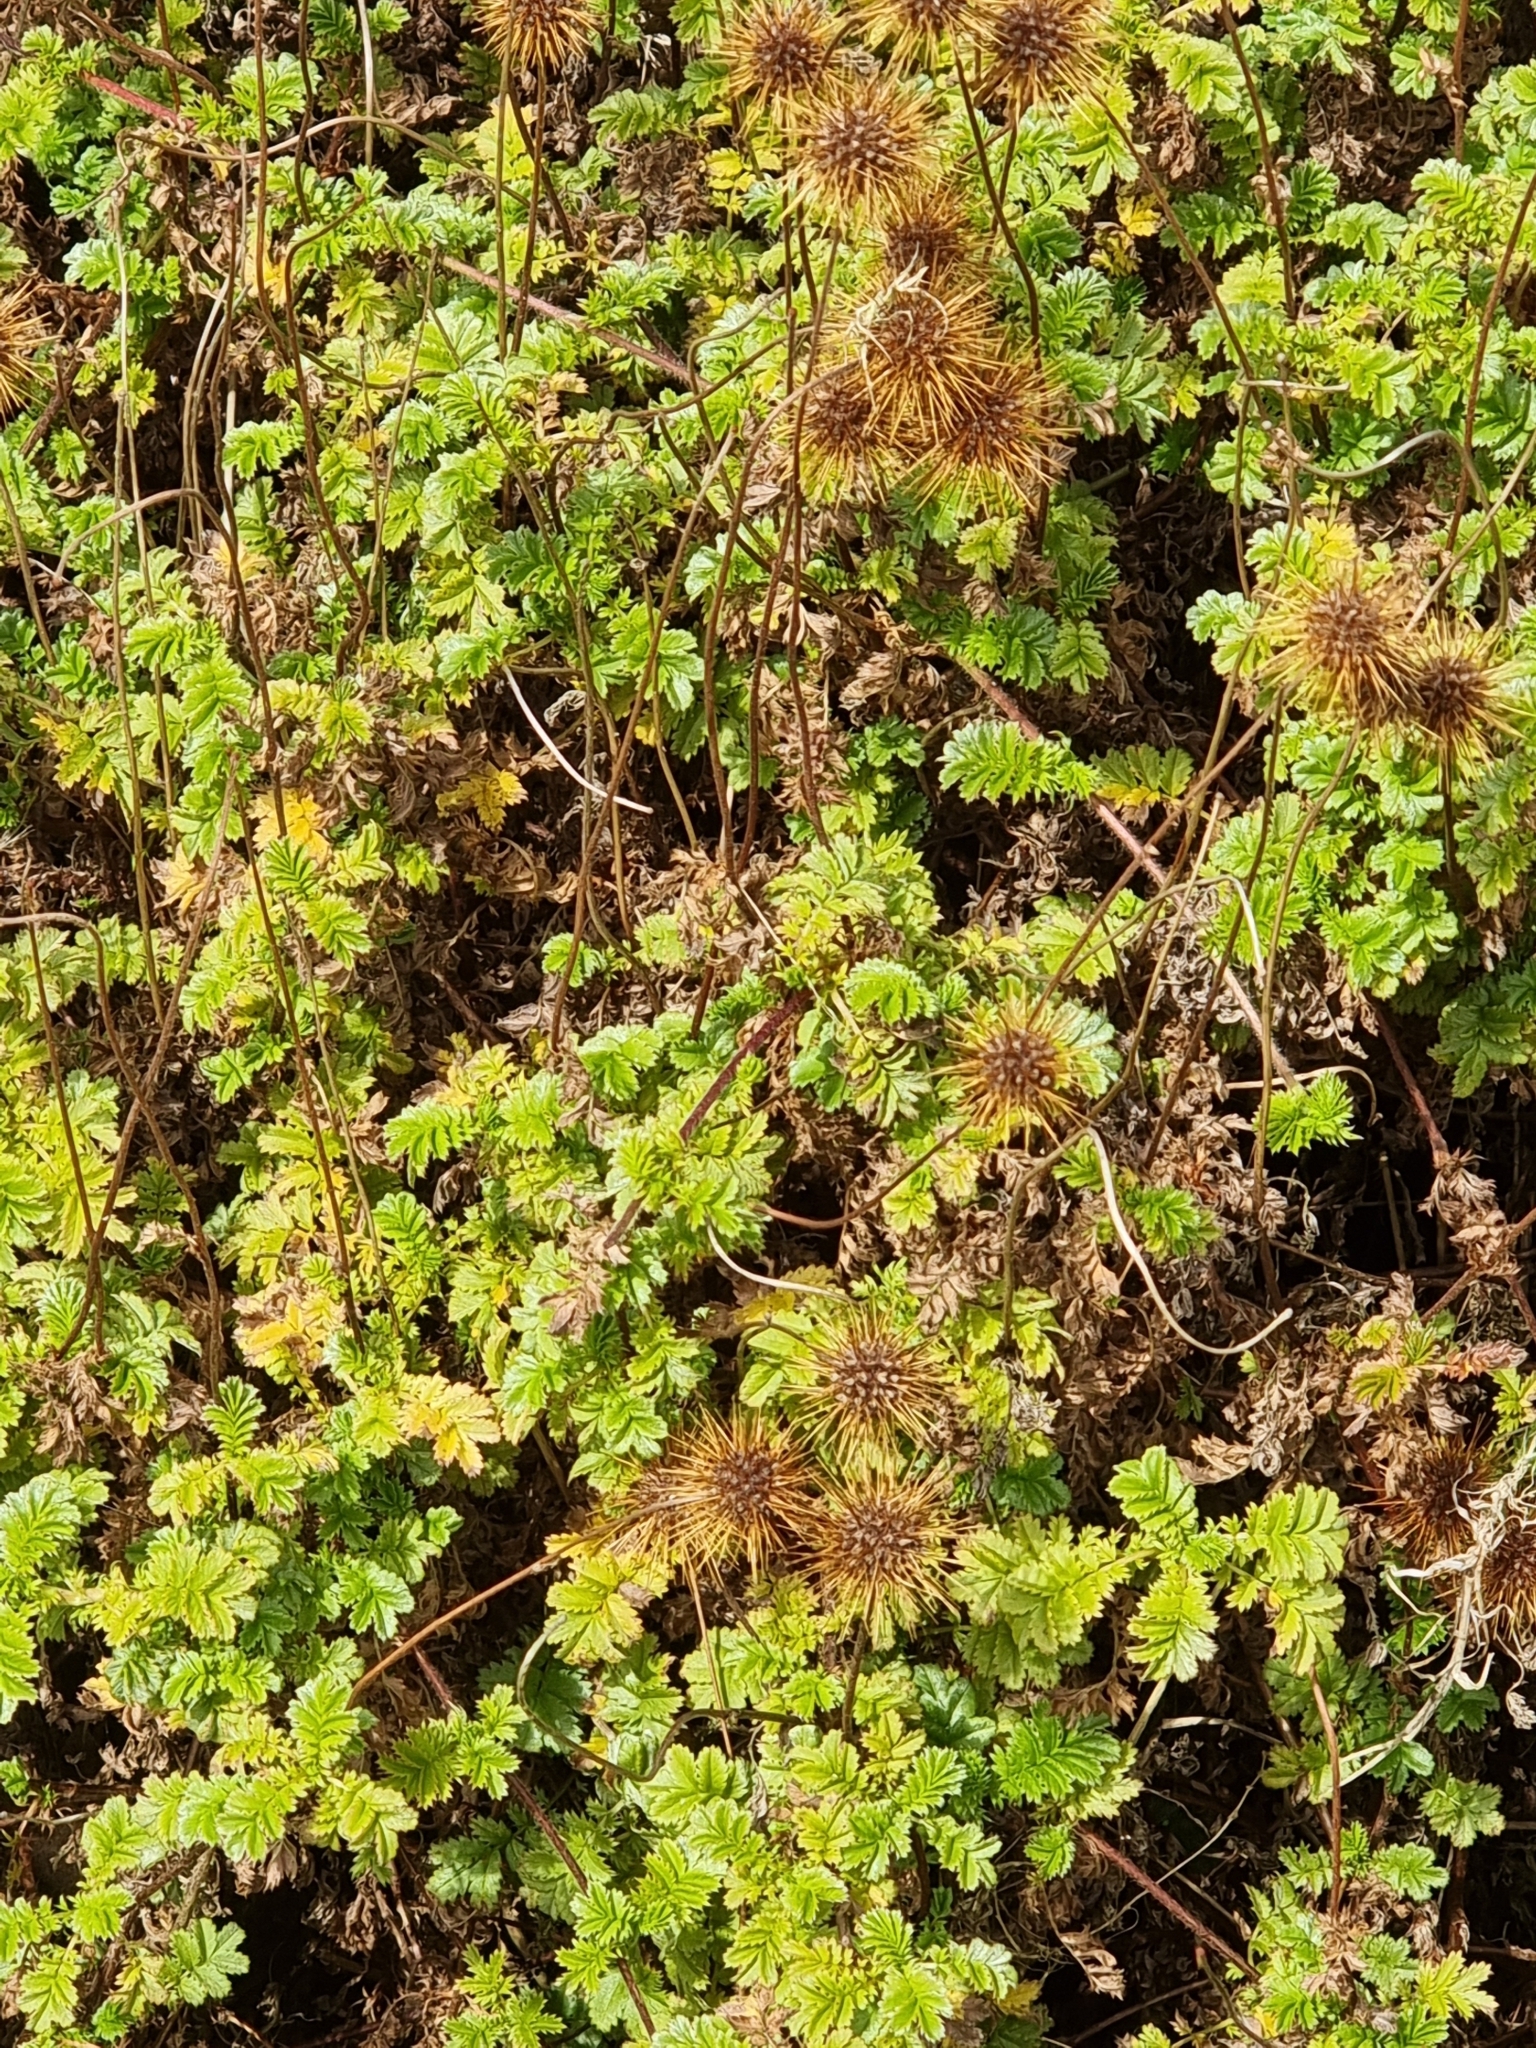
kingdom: Plantae
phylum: Tracheophyta
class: Magnoliopsida
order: Rosales
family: Rosaceae
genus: Acaena
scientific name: Acaena novae-zelandiae
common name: Pirri-pirri-bur
